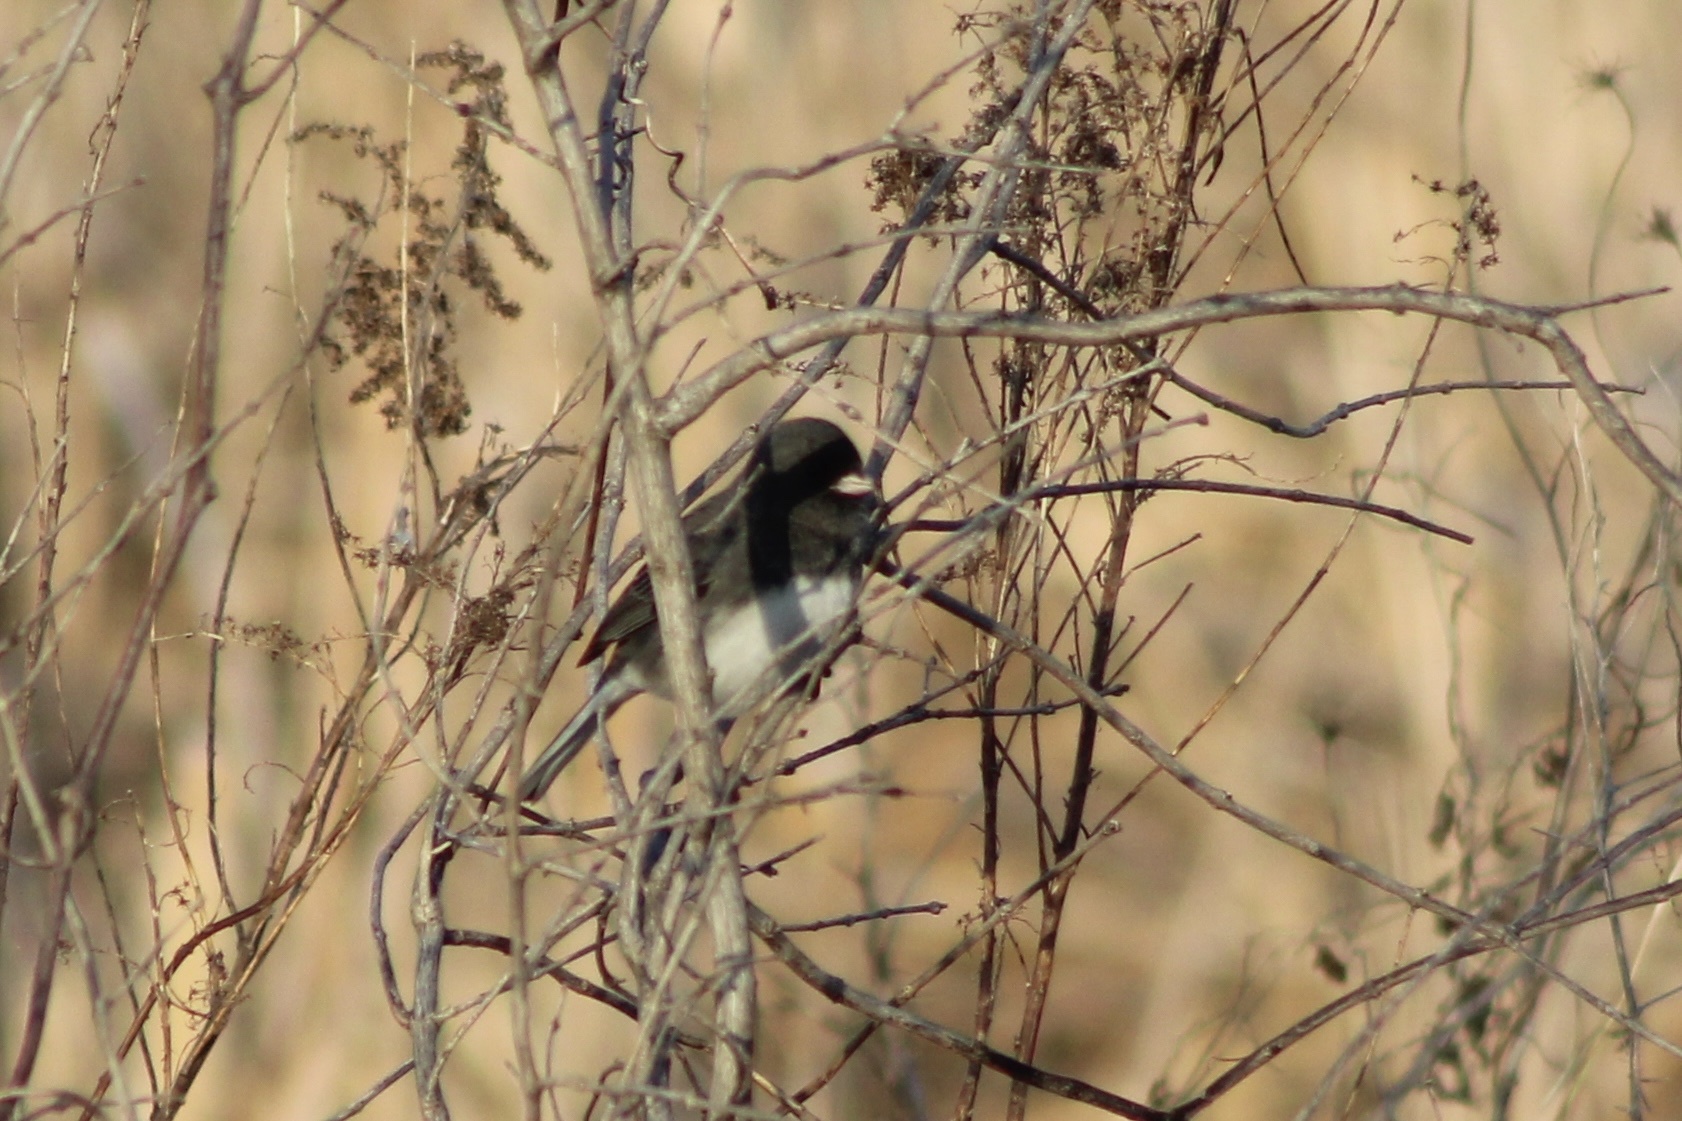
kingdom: Animalia
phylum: Chordata
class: Aves
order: Passeriformes
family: Passerellidae
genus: Junco
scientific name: Junco hyemalis
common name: Dark-eyed junco
